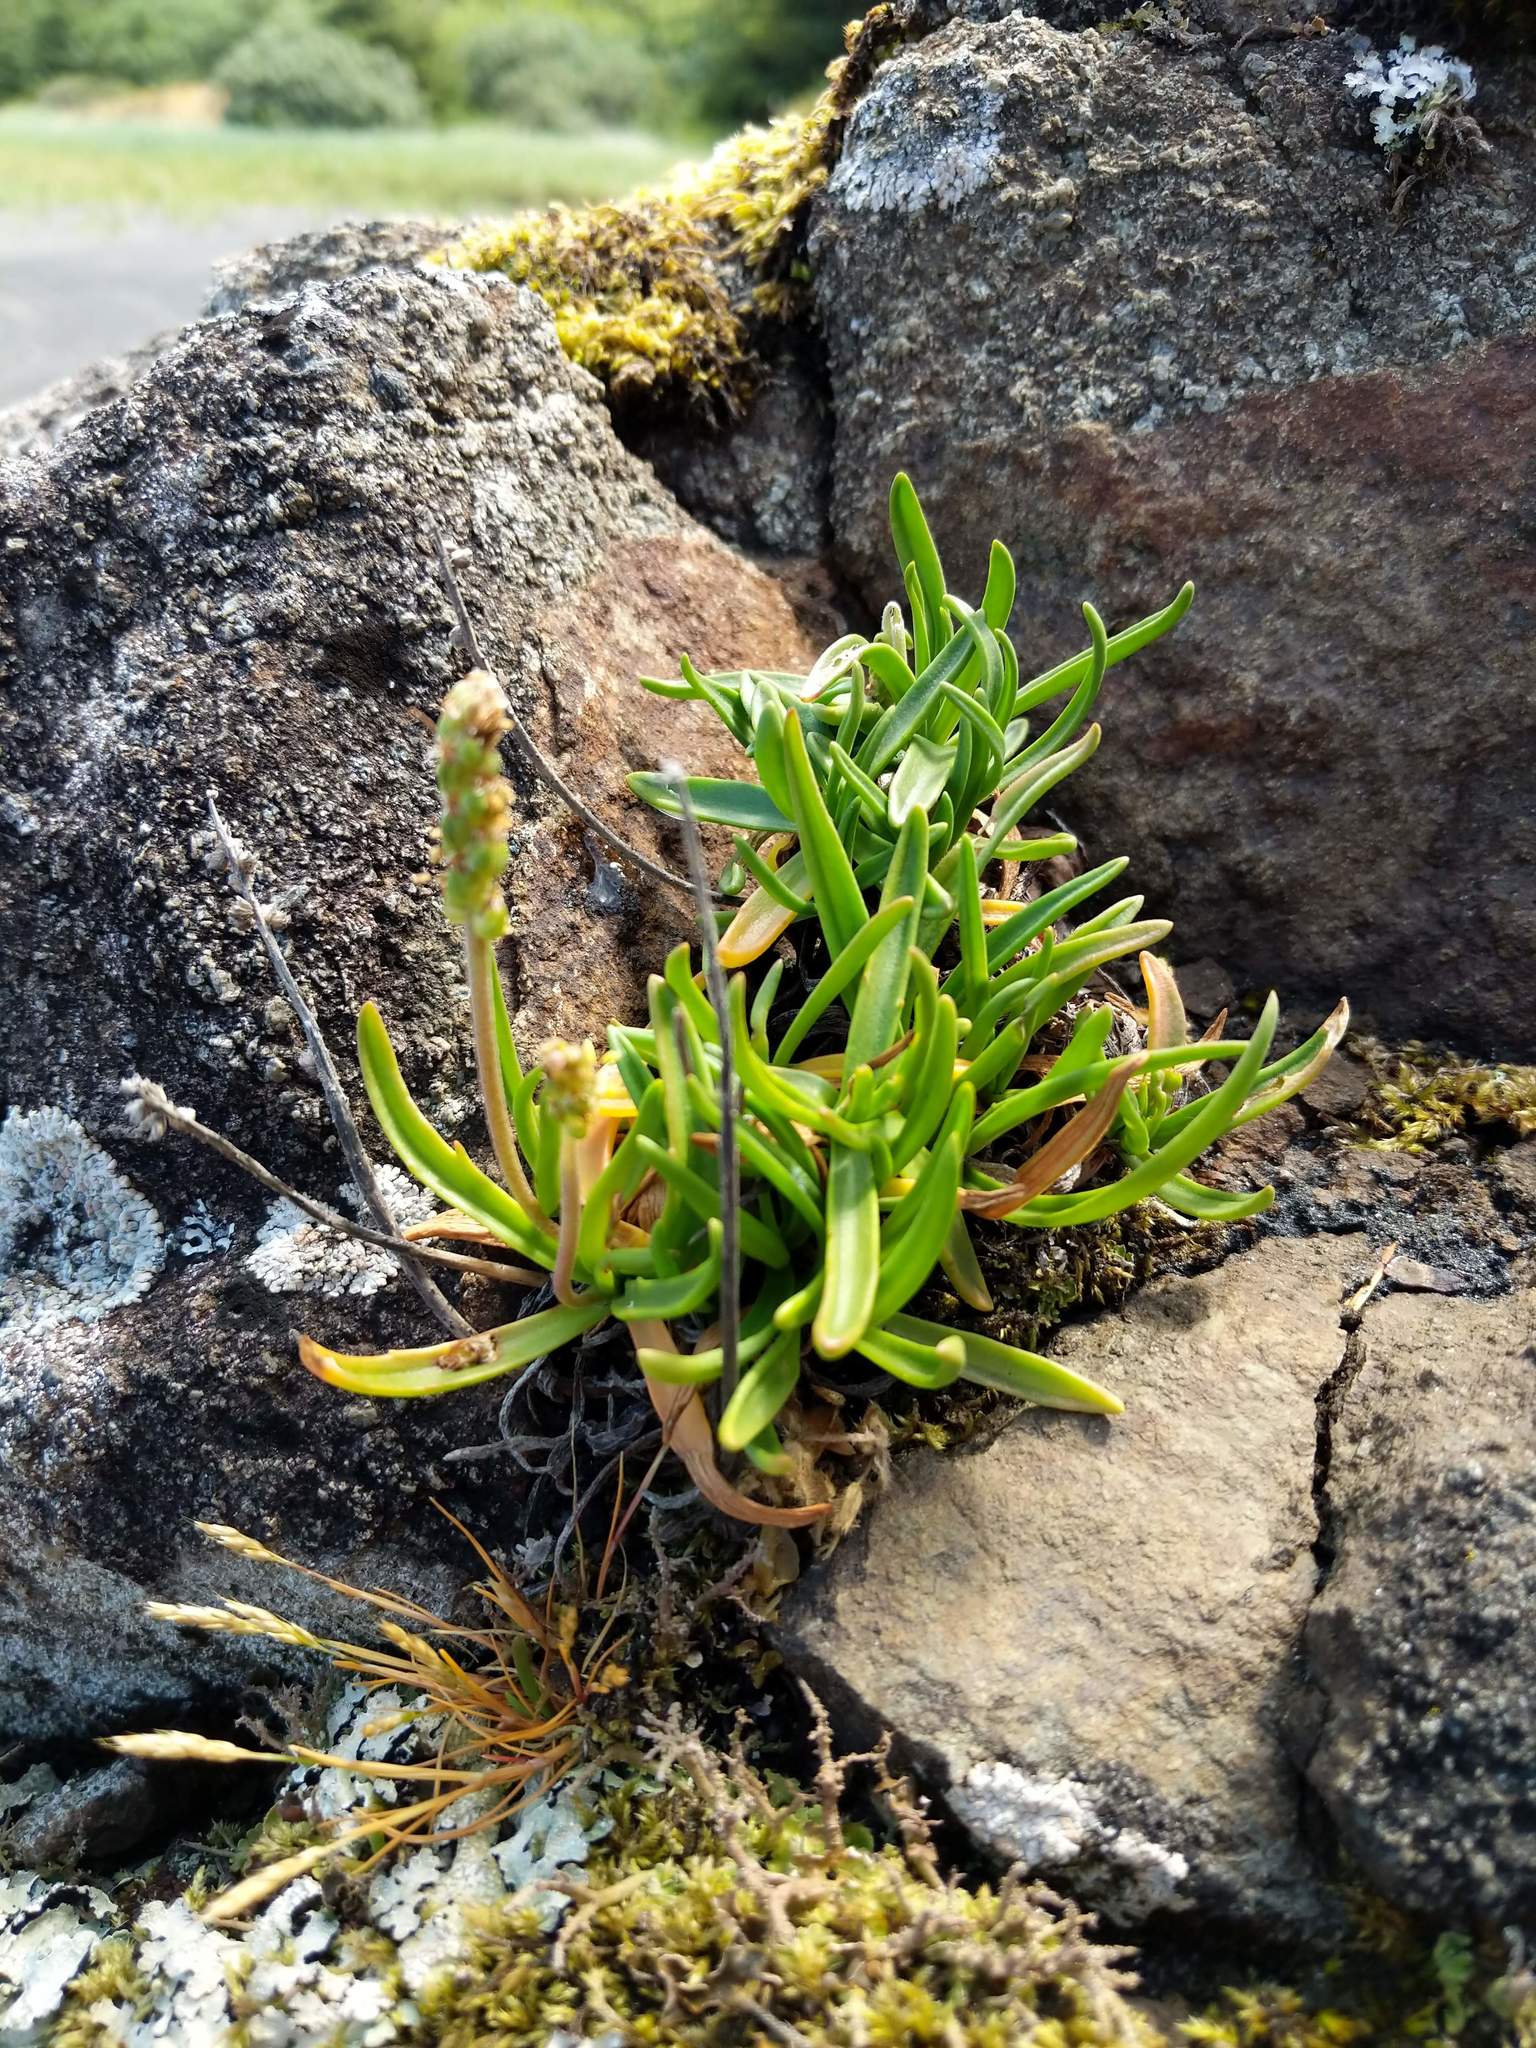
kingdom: Plantae
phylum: Tracheophyta
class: Magnoliopsida
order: Lamiales
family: Plantaginaceae
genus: Plantago
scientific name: Plantago maritima
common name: Sea plantain
